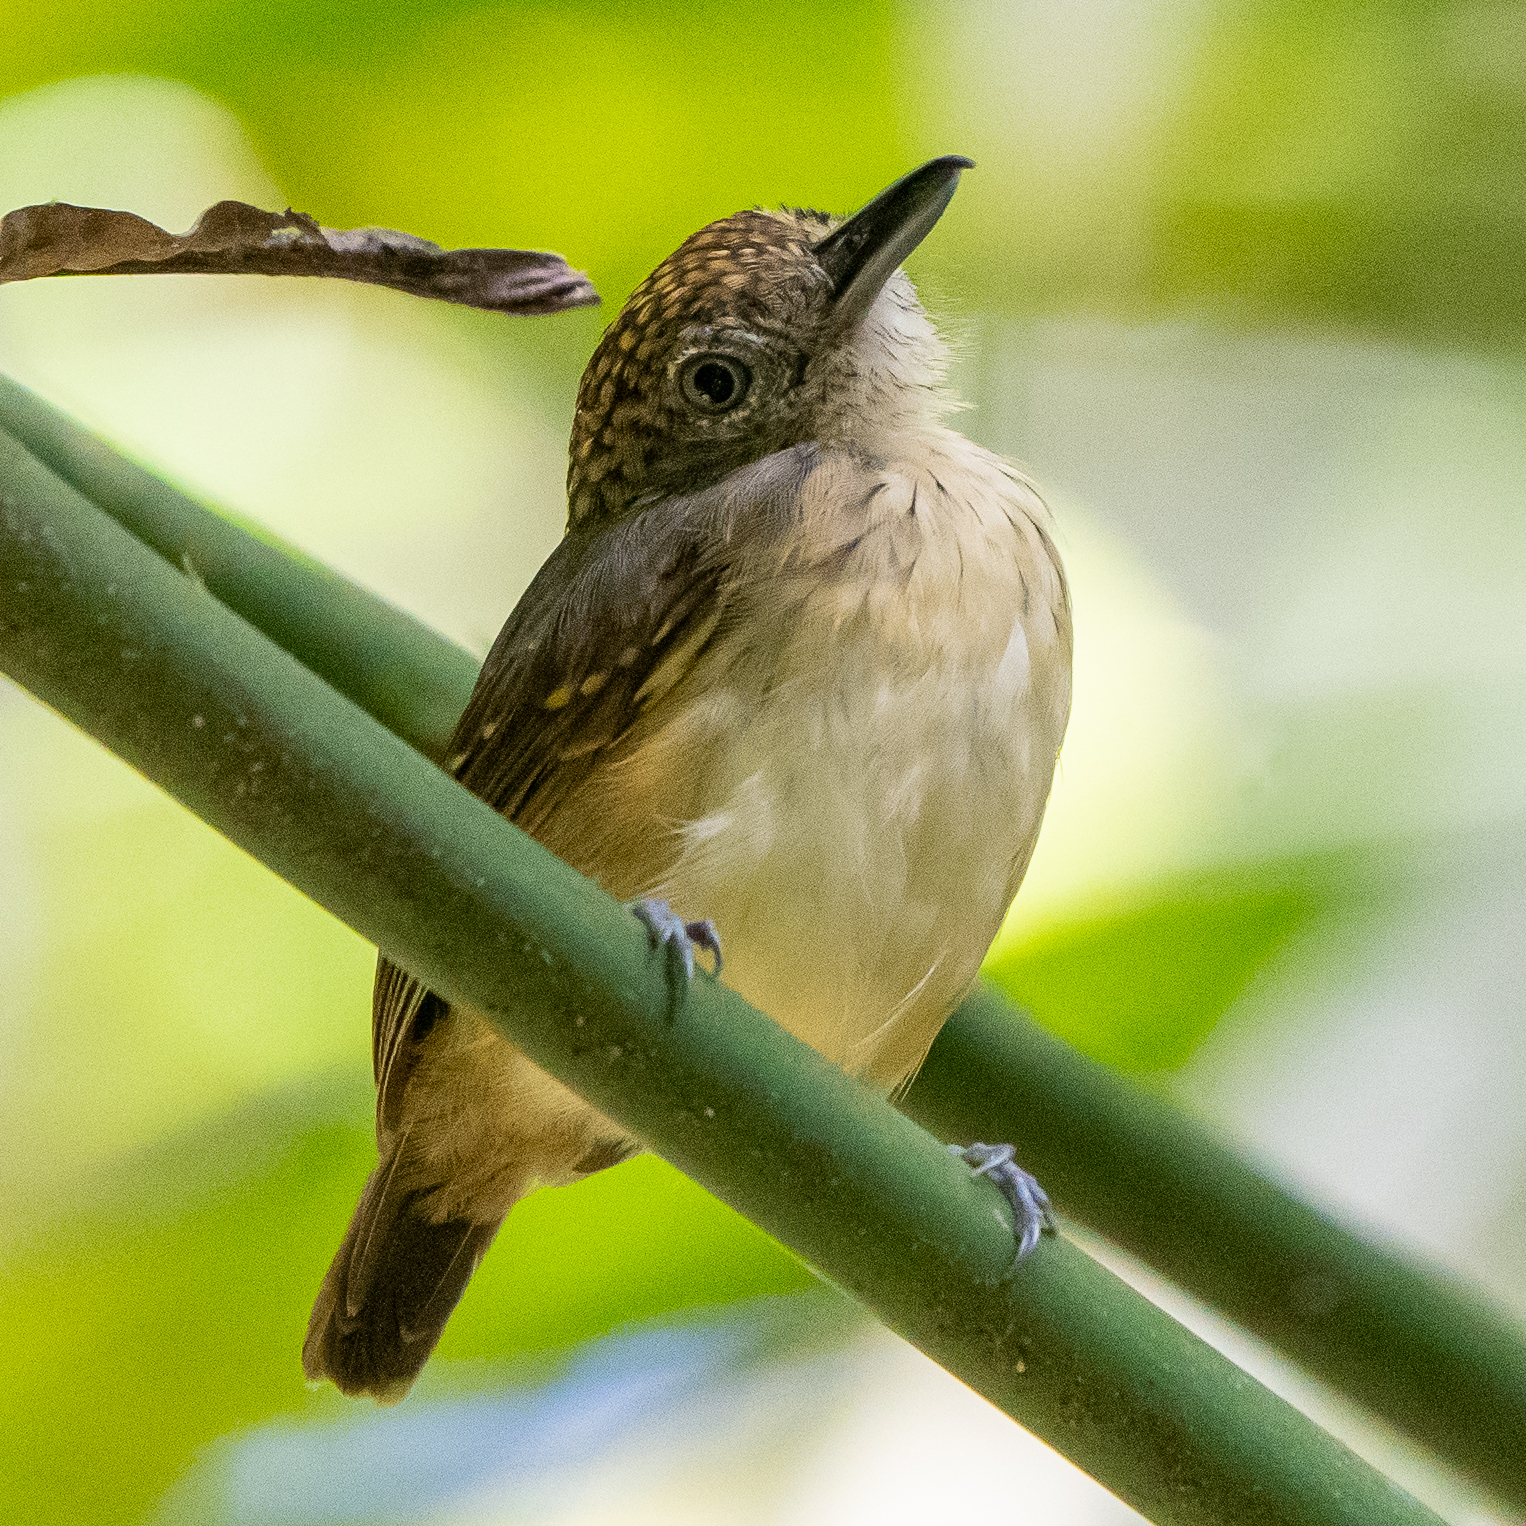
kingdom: Animalia
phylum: Chordata
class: Aves
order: Passeriformes
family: Thamnophilidae
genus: Dysithamnus
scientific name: Dysithamnus puncticeps
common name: Spot-crowned antvireo
